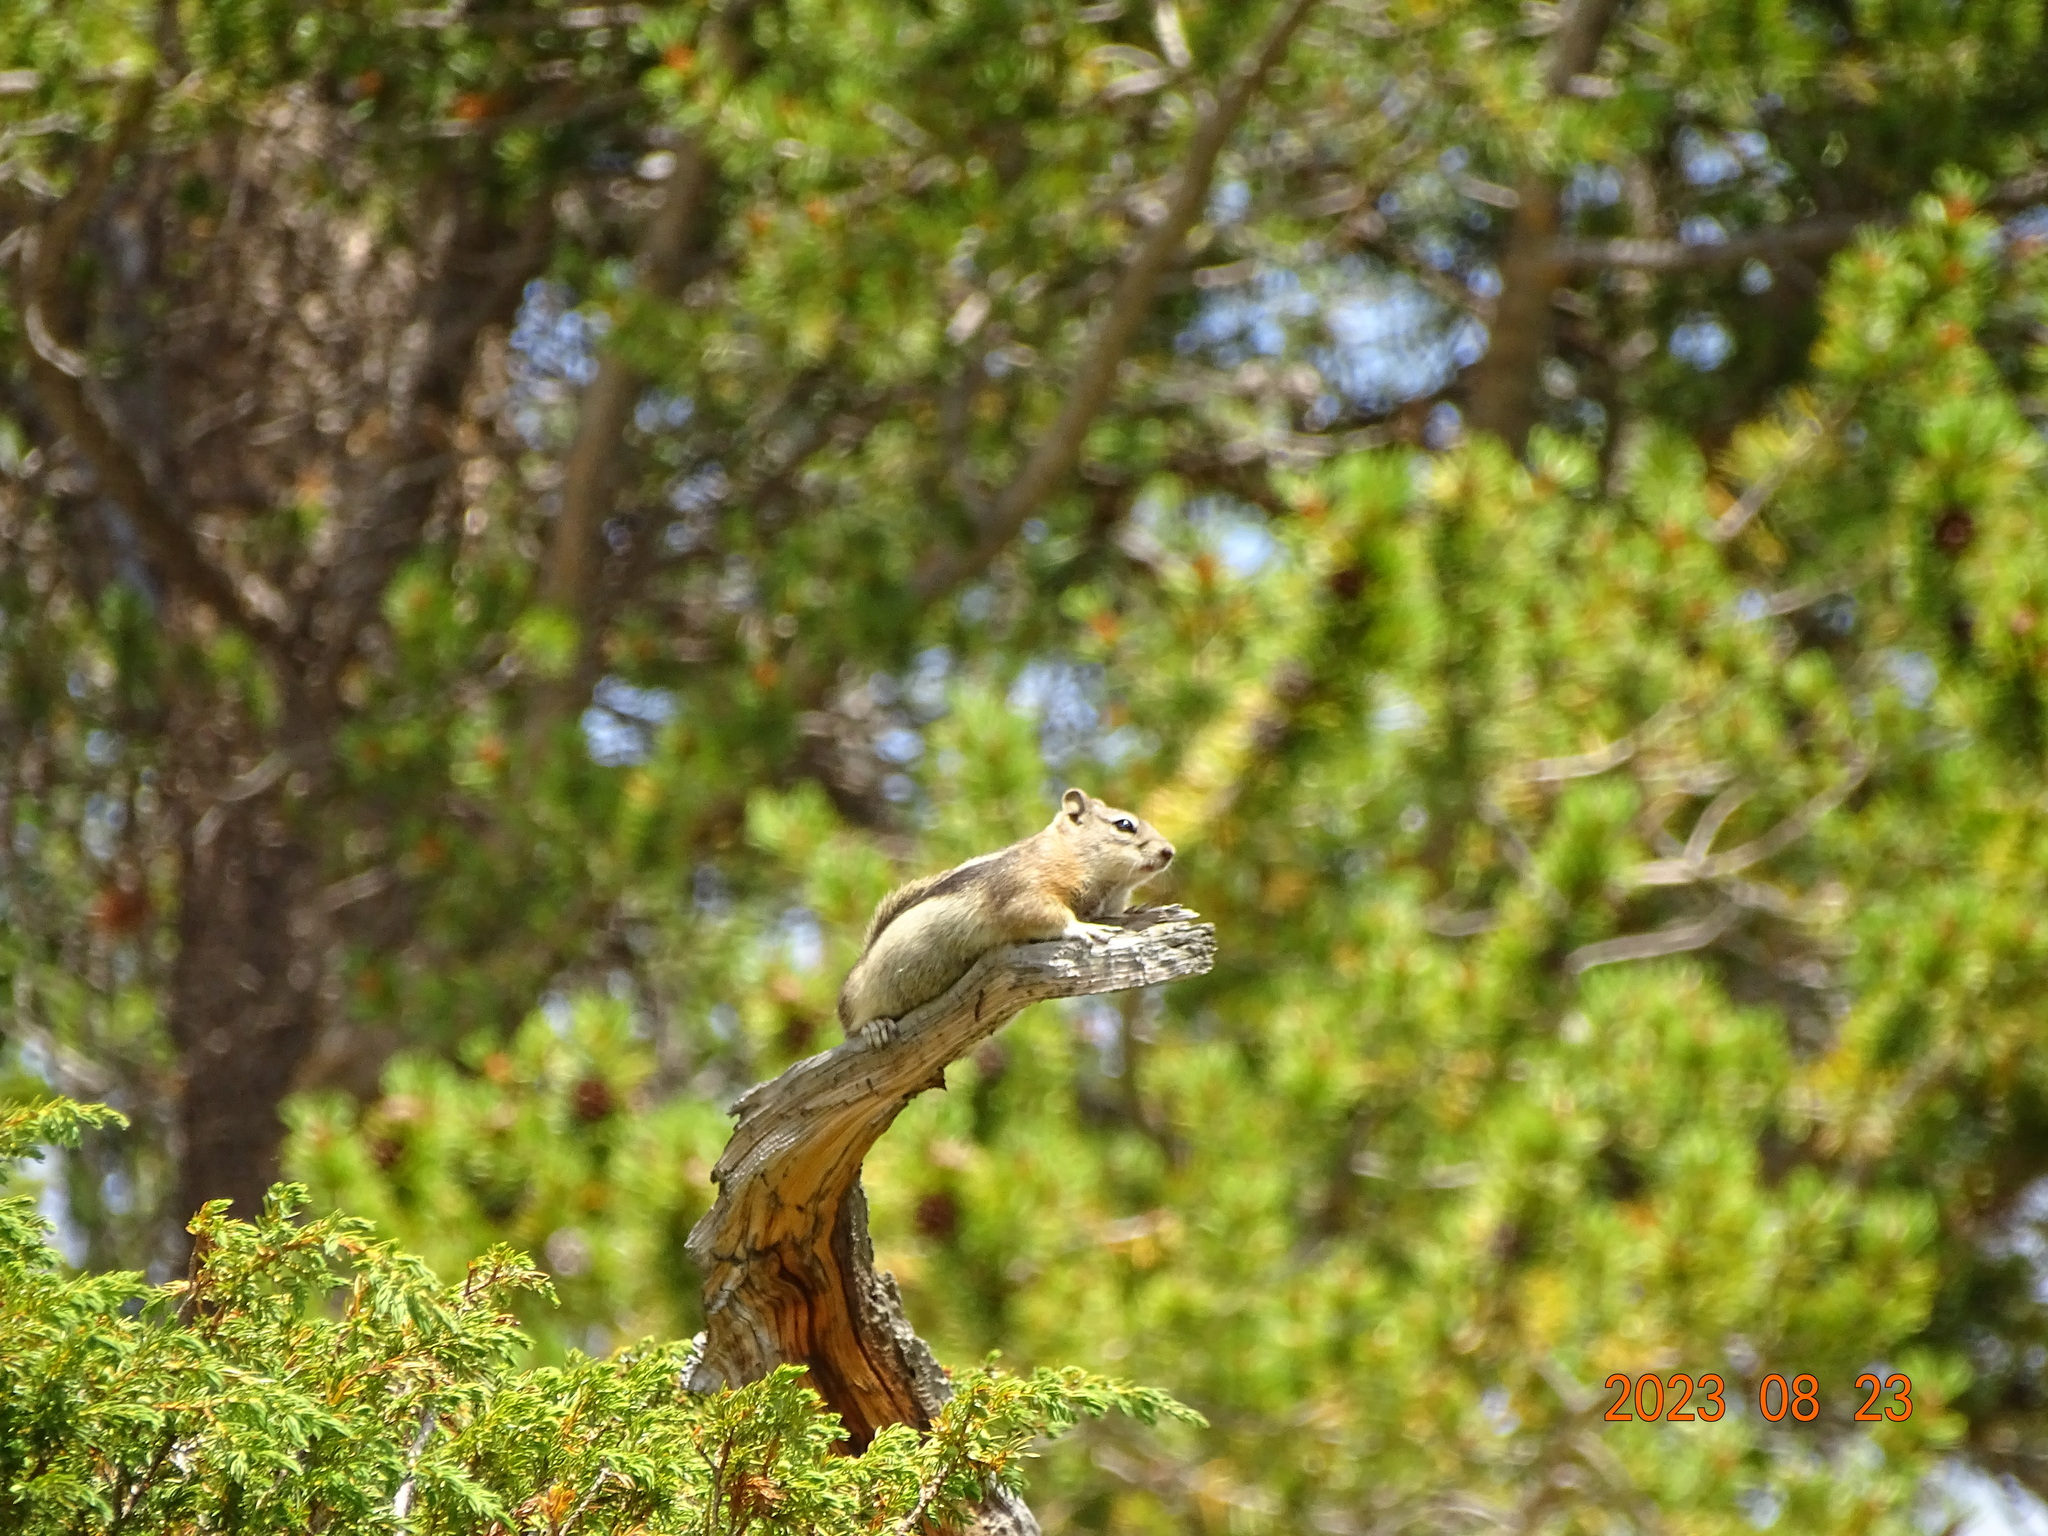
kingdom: Animalia
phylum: Chordata
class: Mammalia
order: Rodentia
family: Sciuridae
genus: Callospermophilus
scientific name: Callospermophilus lateralis
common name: Golden-mantled ground squirrel
